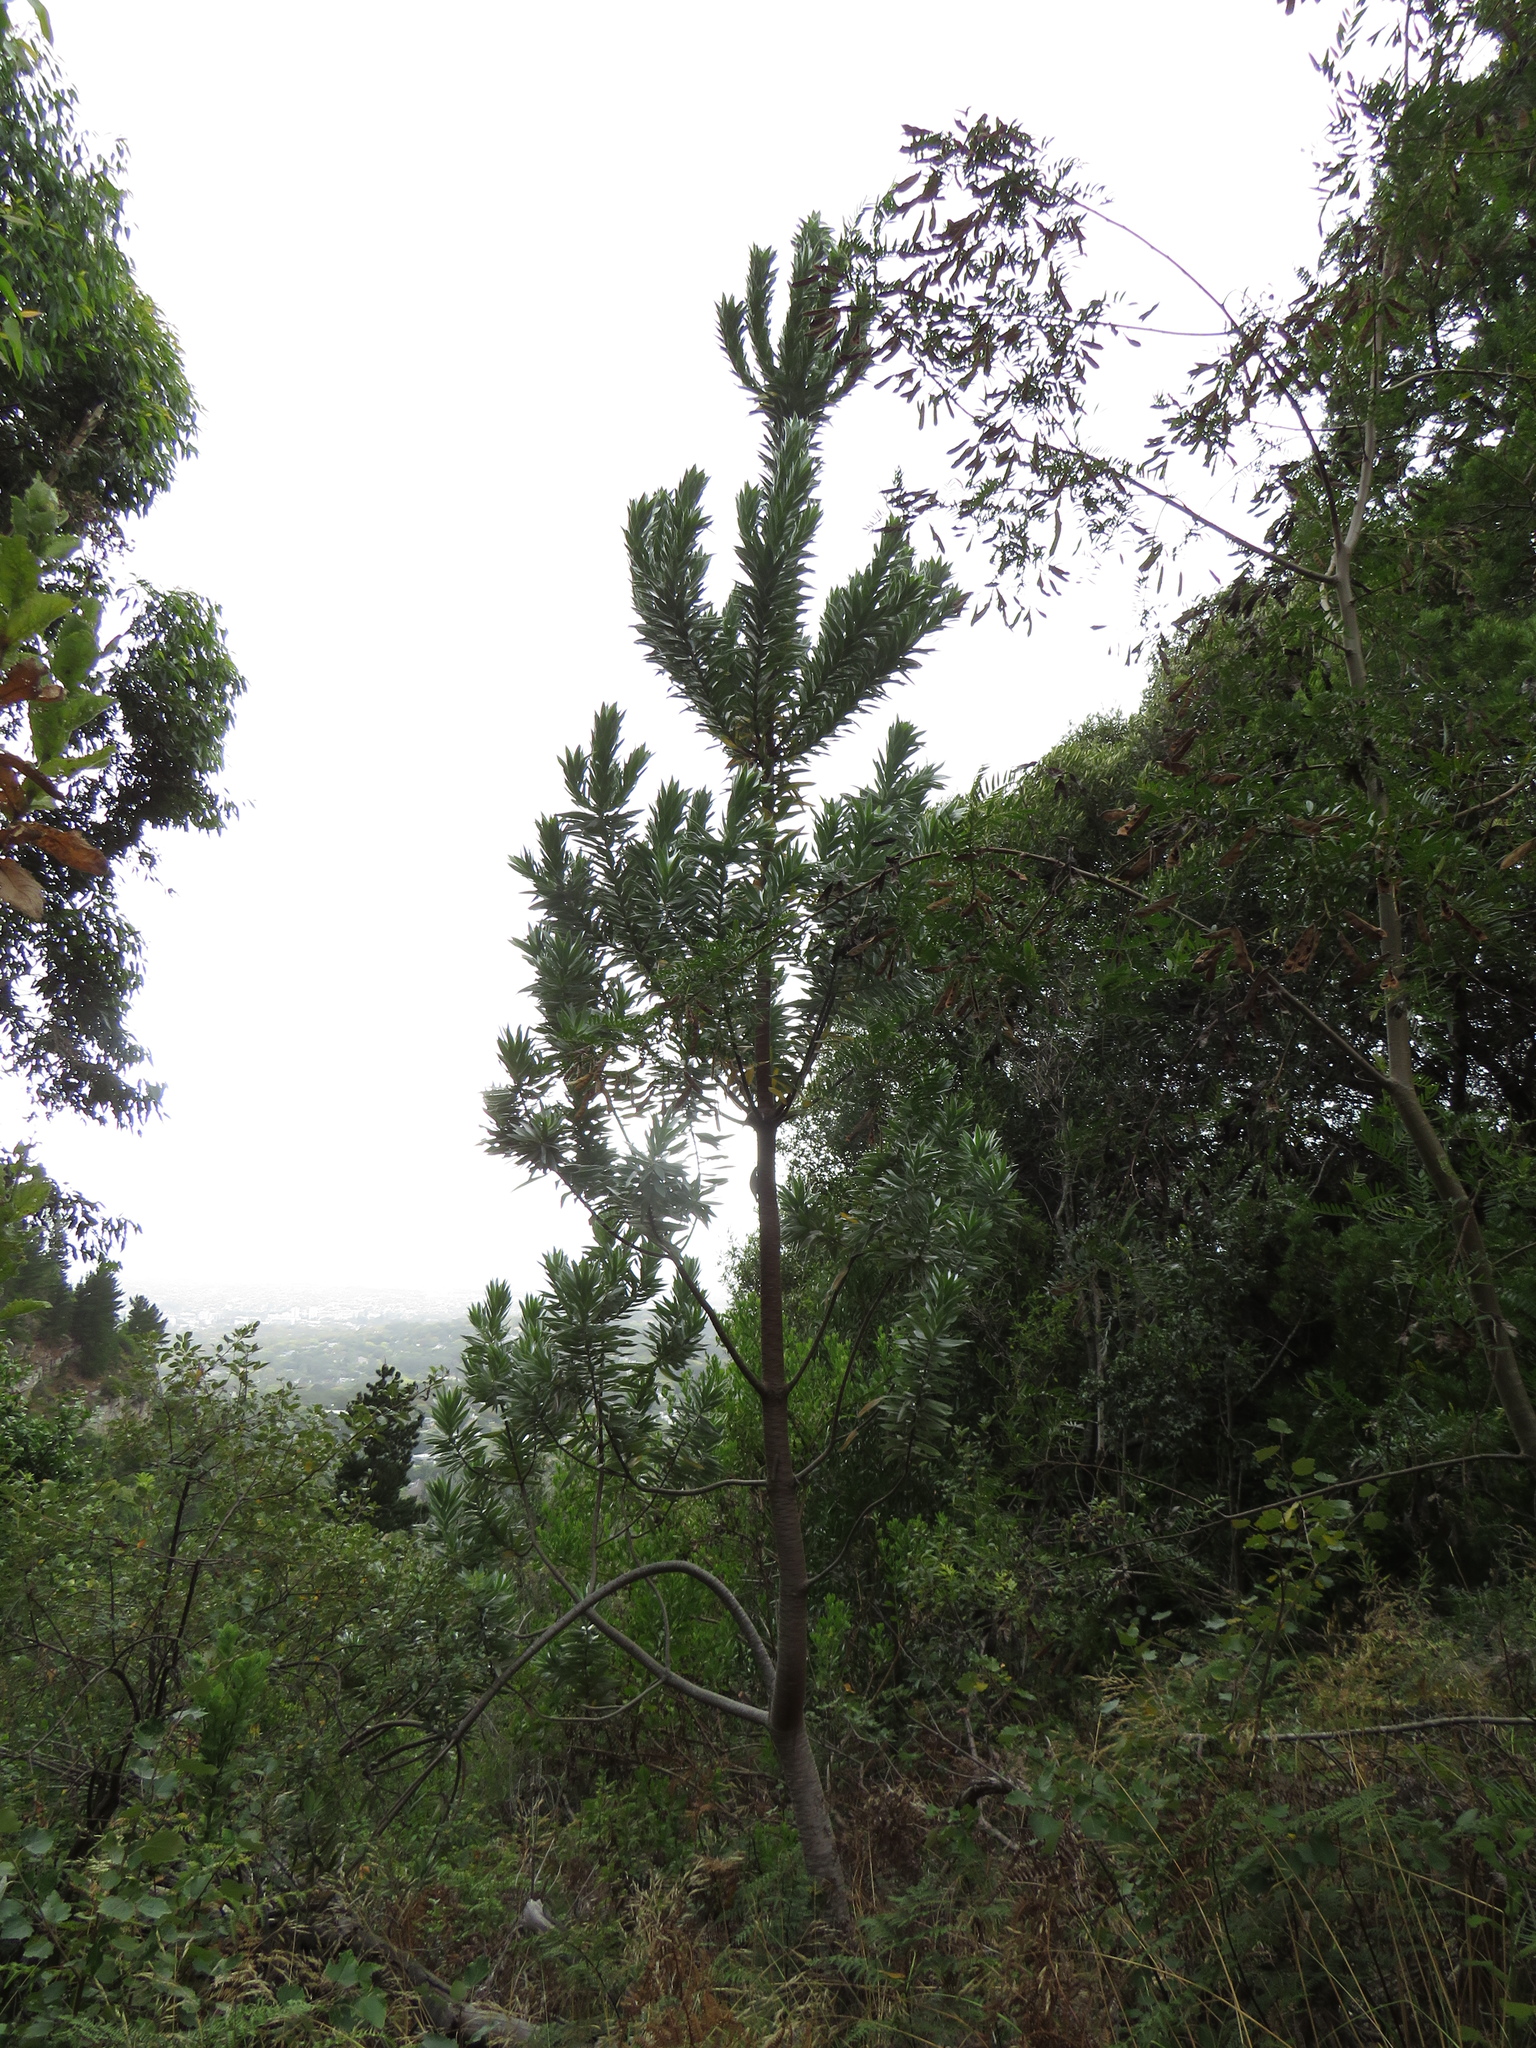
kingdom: Plantae
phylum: Tracheophyta
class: Magnoliopsida
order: Proteales
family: Proteaceae
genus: Leucadendron
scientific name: Leucadendron argenteum
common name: Cape silver tree
